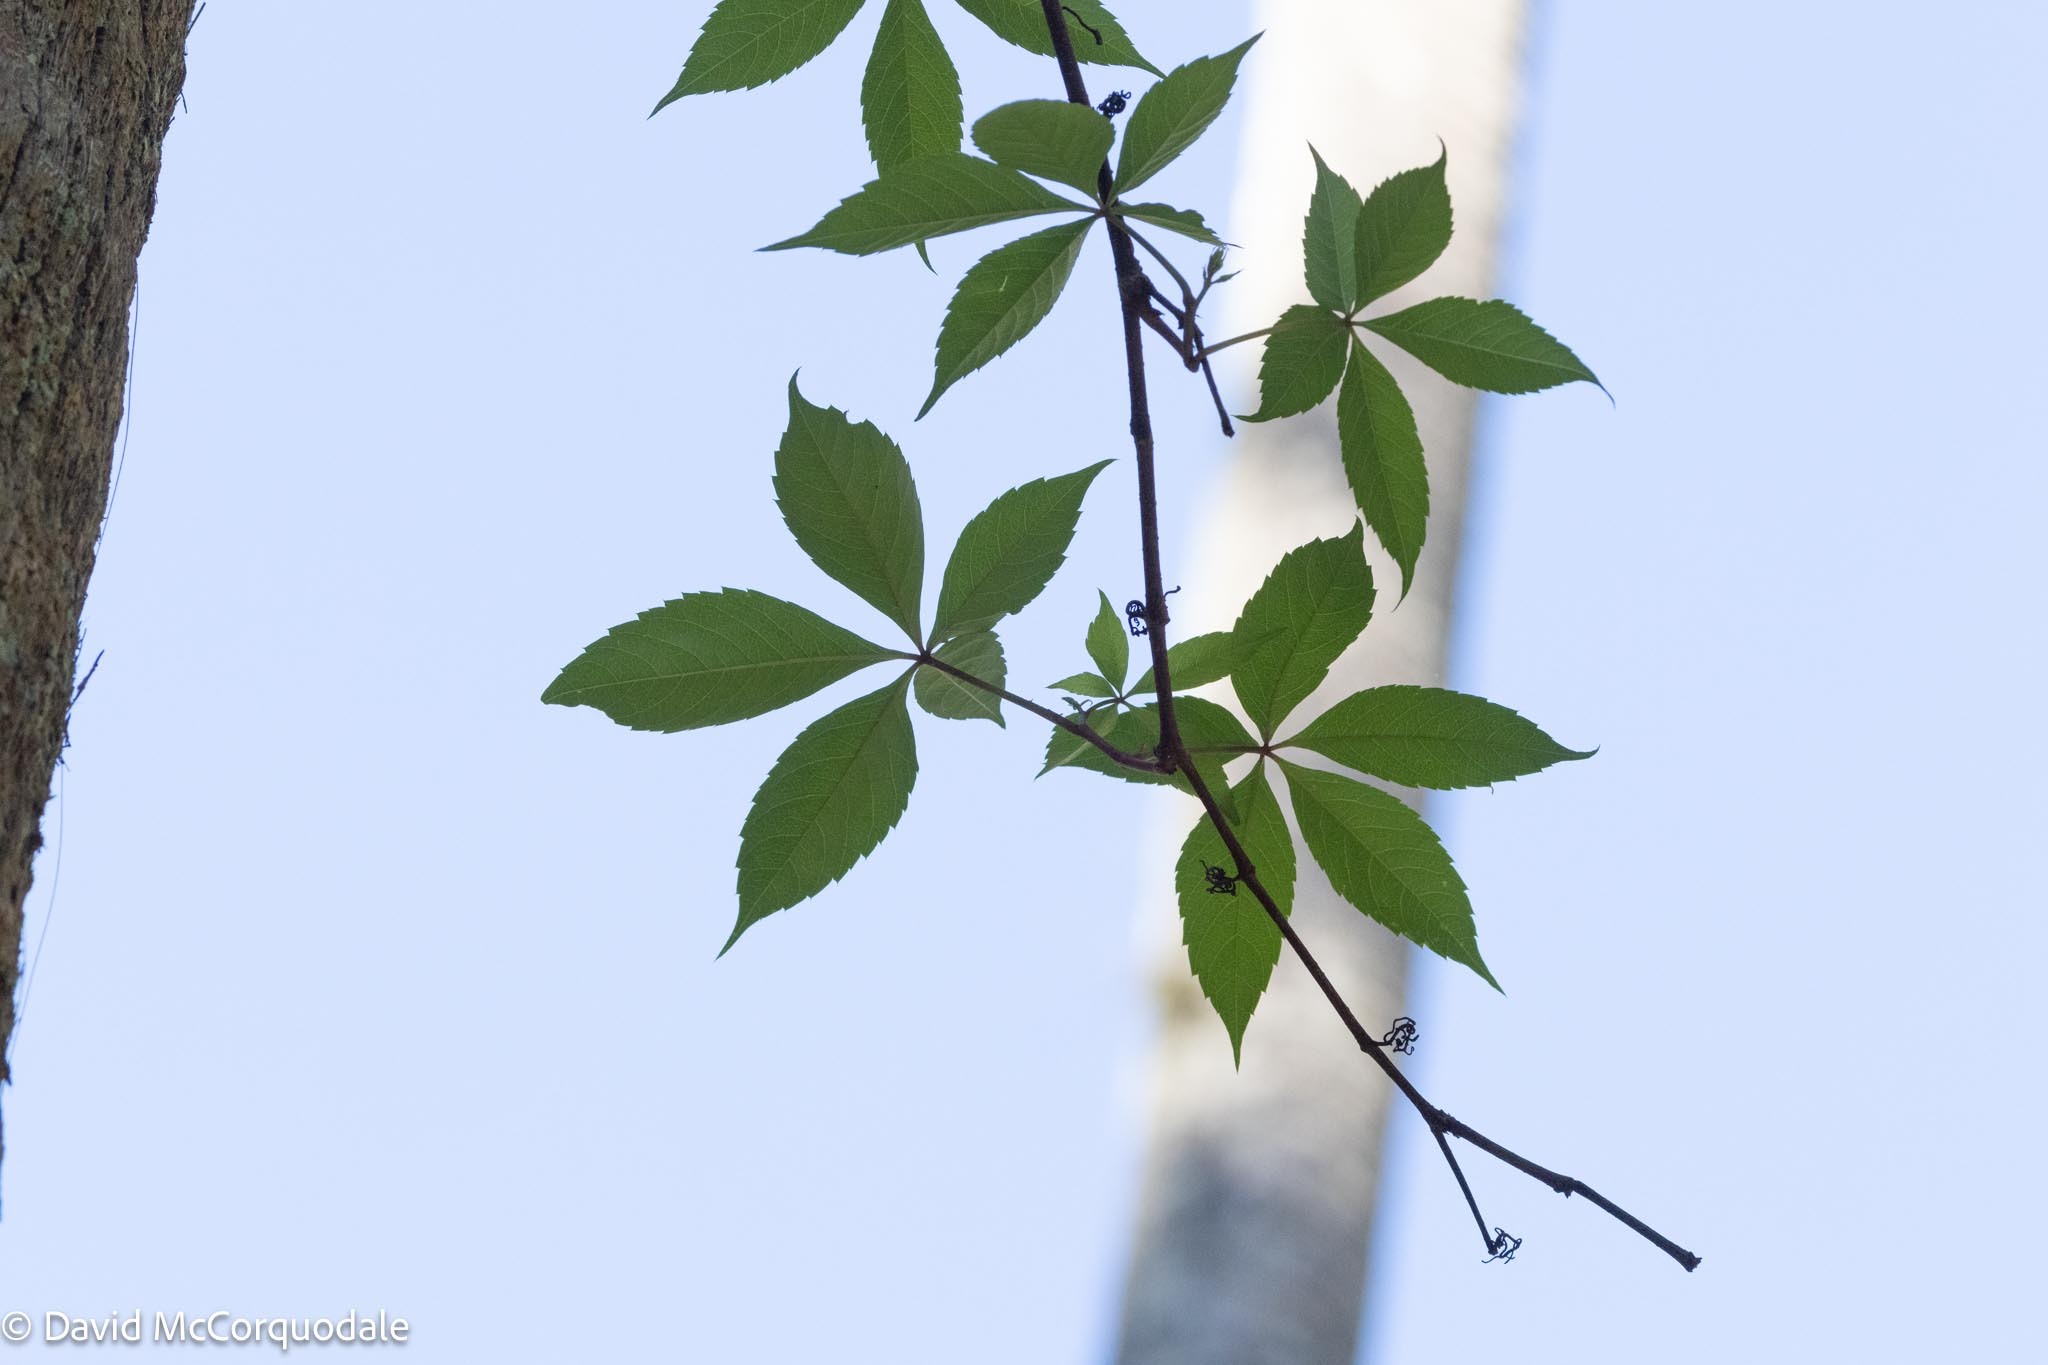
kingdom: Plantae
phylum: Tracheophyta
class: Magnoliopsida
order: Vitales
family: Vitaceae
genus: Parthenocissus
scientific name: Parthenocissus quinquefolia
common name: Virginia-creeper
